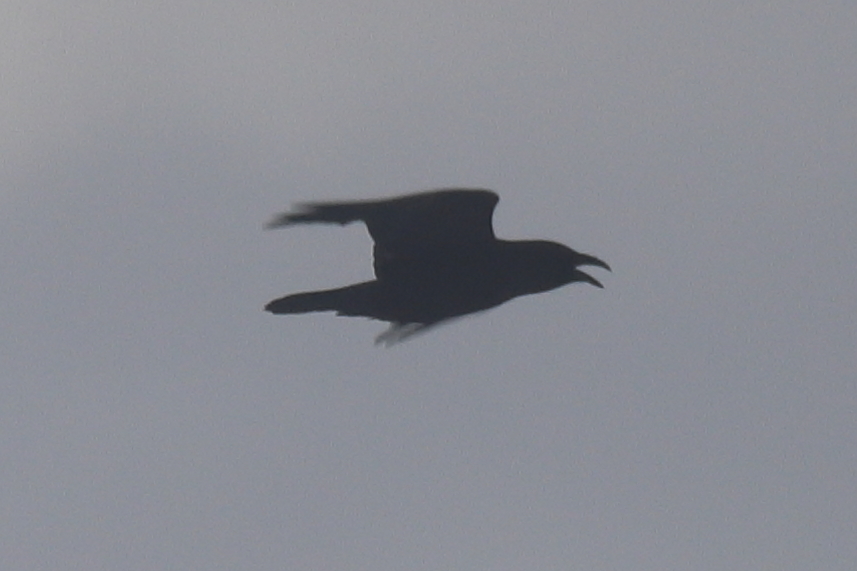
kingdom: Animalia
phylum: Chordata
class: Aves
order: Passeriformes
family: Corvidae
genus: Corvus
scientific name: Corvus corax
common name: Common raven
